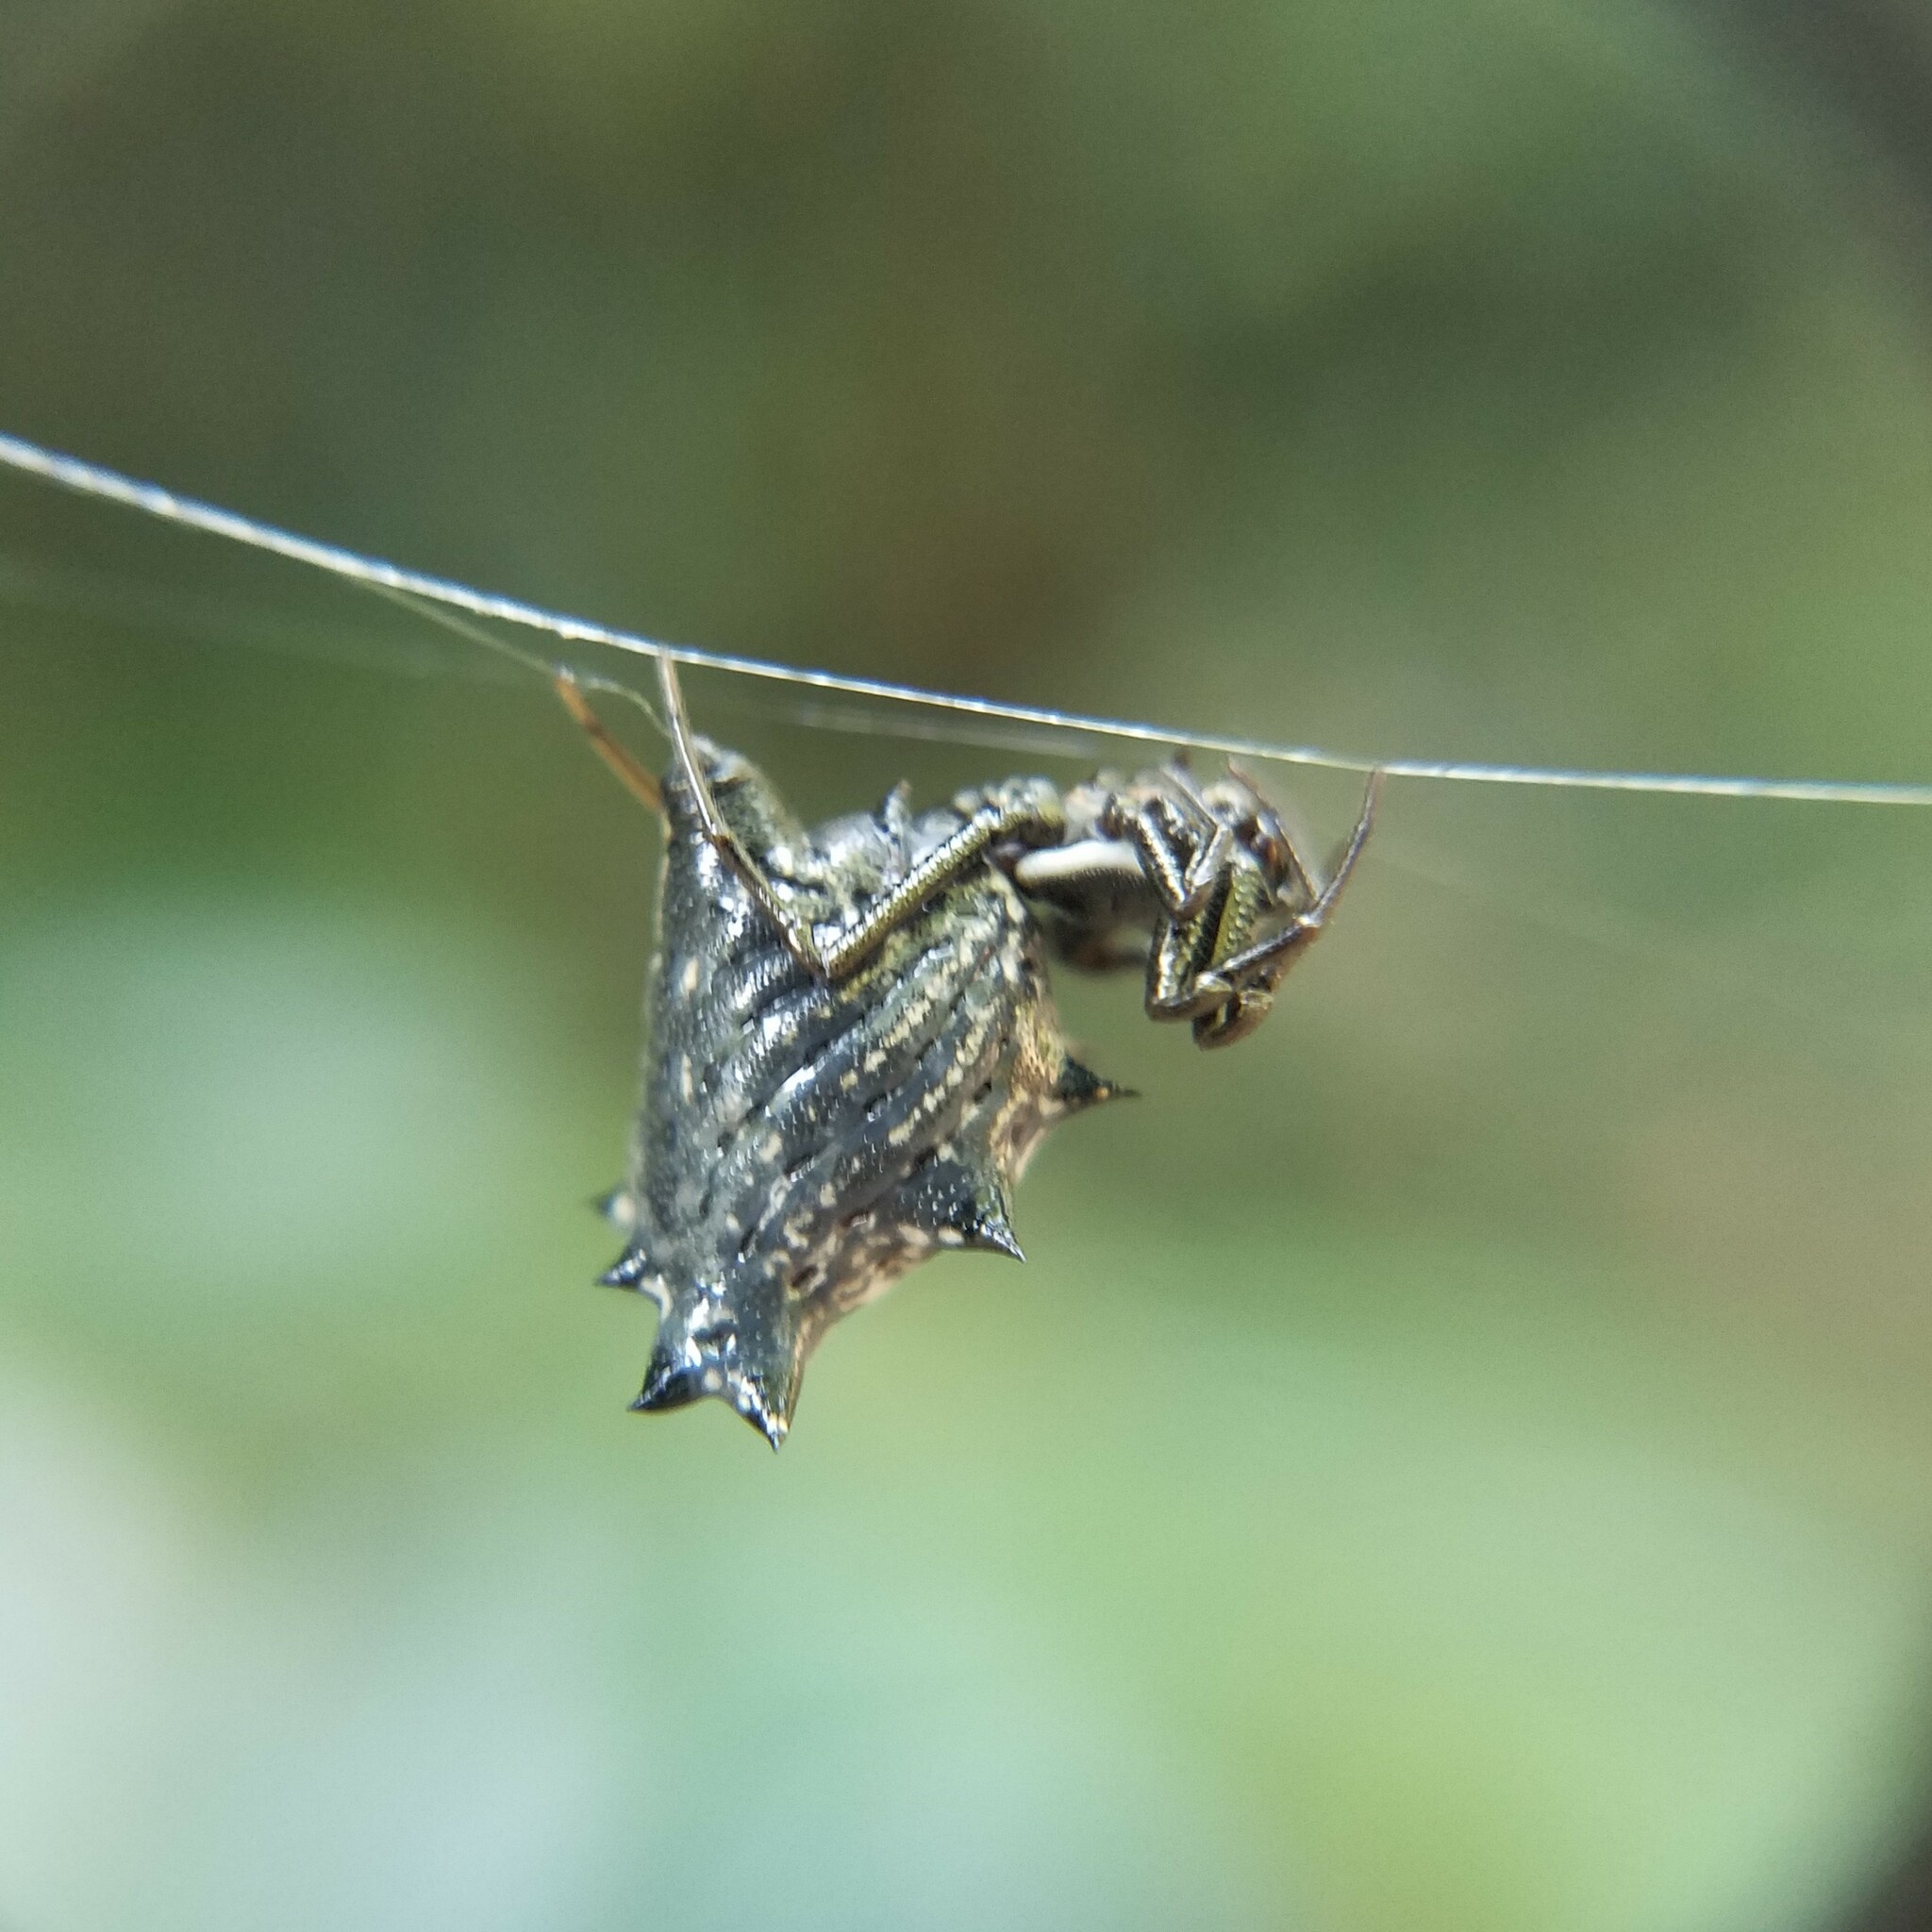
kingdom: Animalia
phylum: Arthropoda
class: Arachnida
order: Araneae
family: Araneidae
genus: Micrathena
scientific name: Micrathena gracilis
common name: Orb weavers
